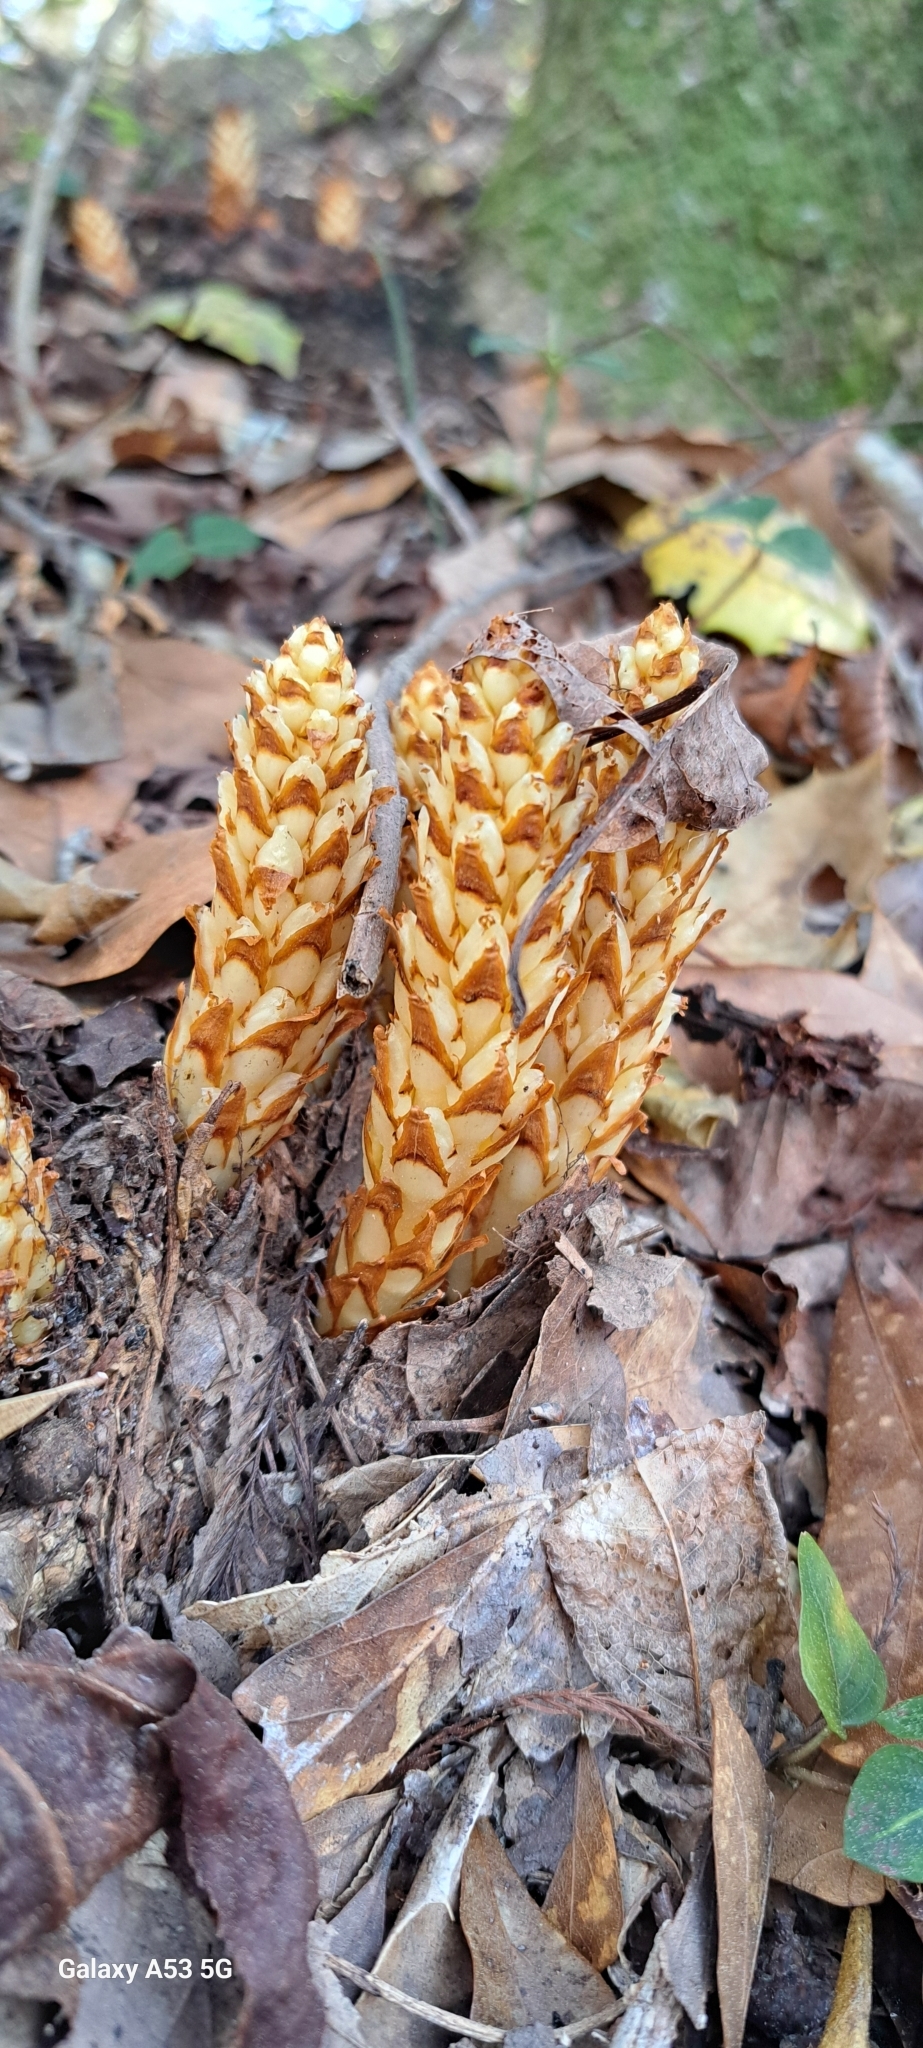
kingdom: Plantae
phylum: Tracheophyta
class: Magnoliopsida
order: Lamiales
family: Orobanchaceae
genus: Conopholis
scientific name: Conopholis americana
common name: American cancer-root
